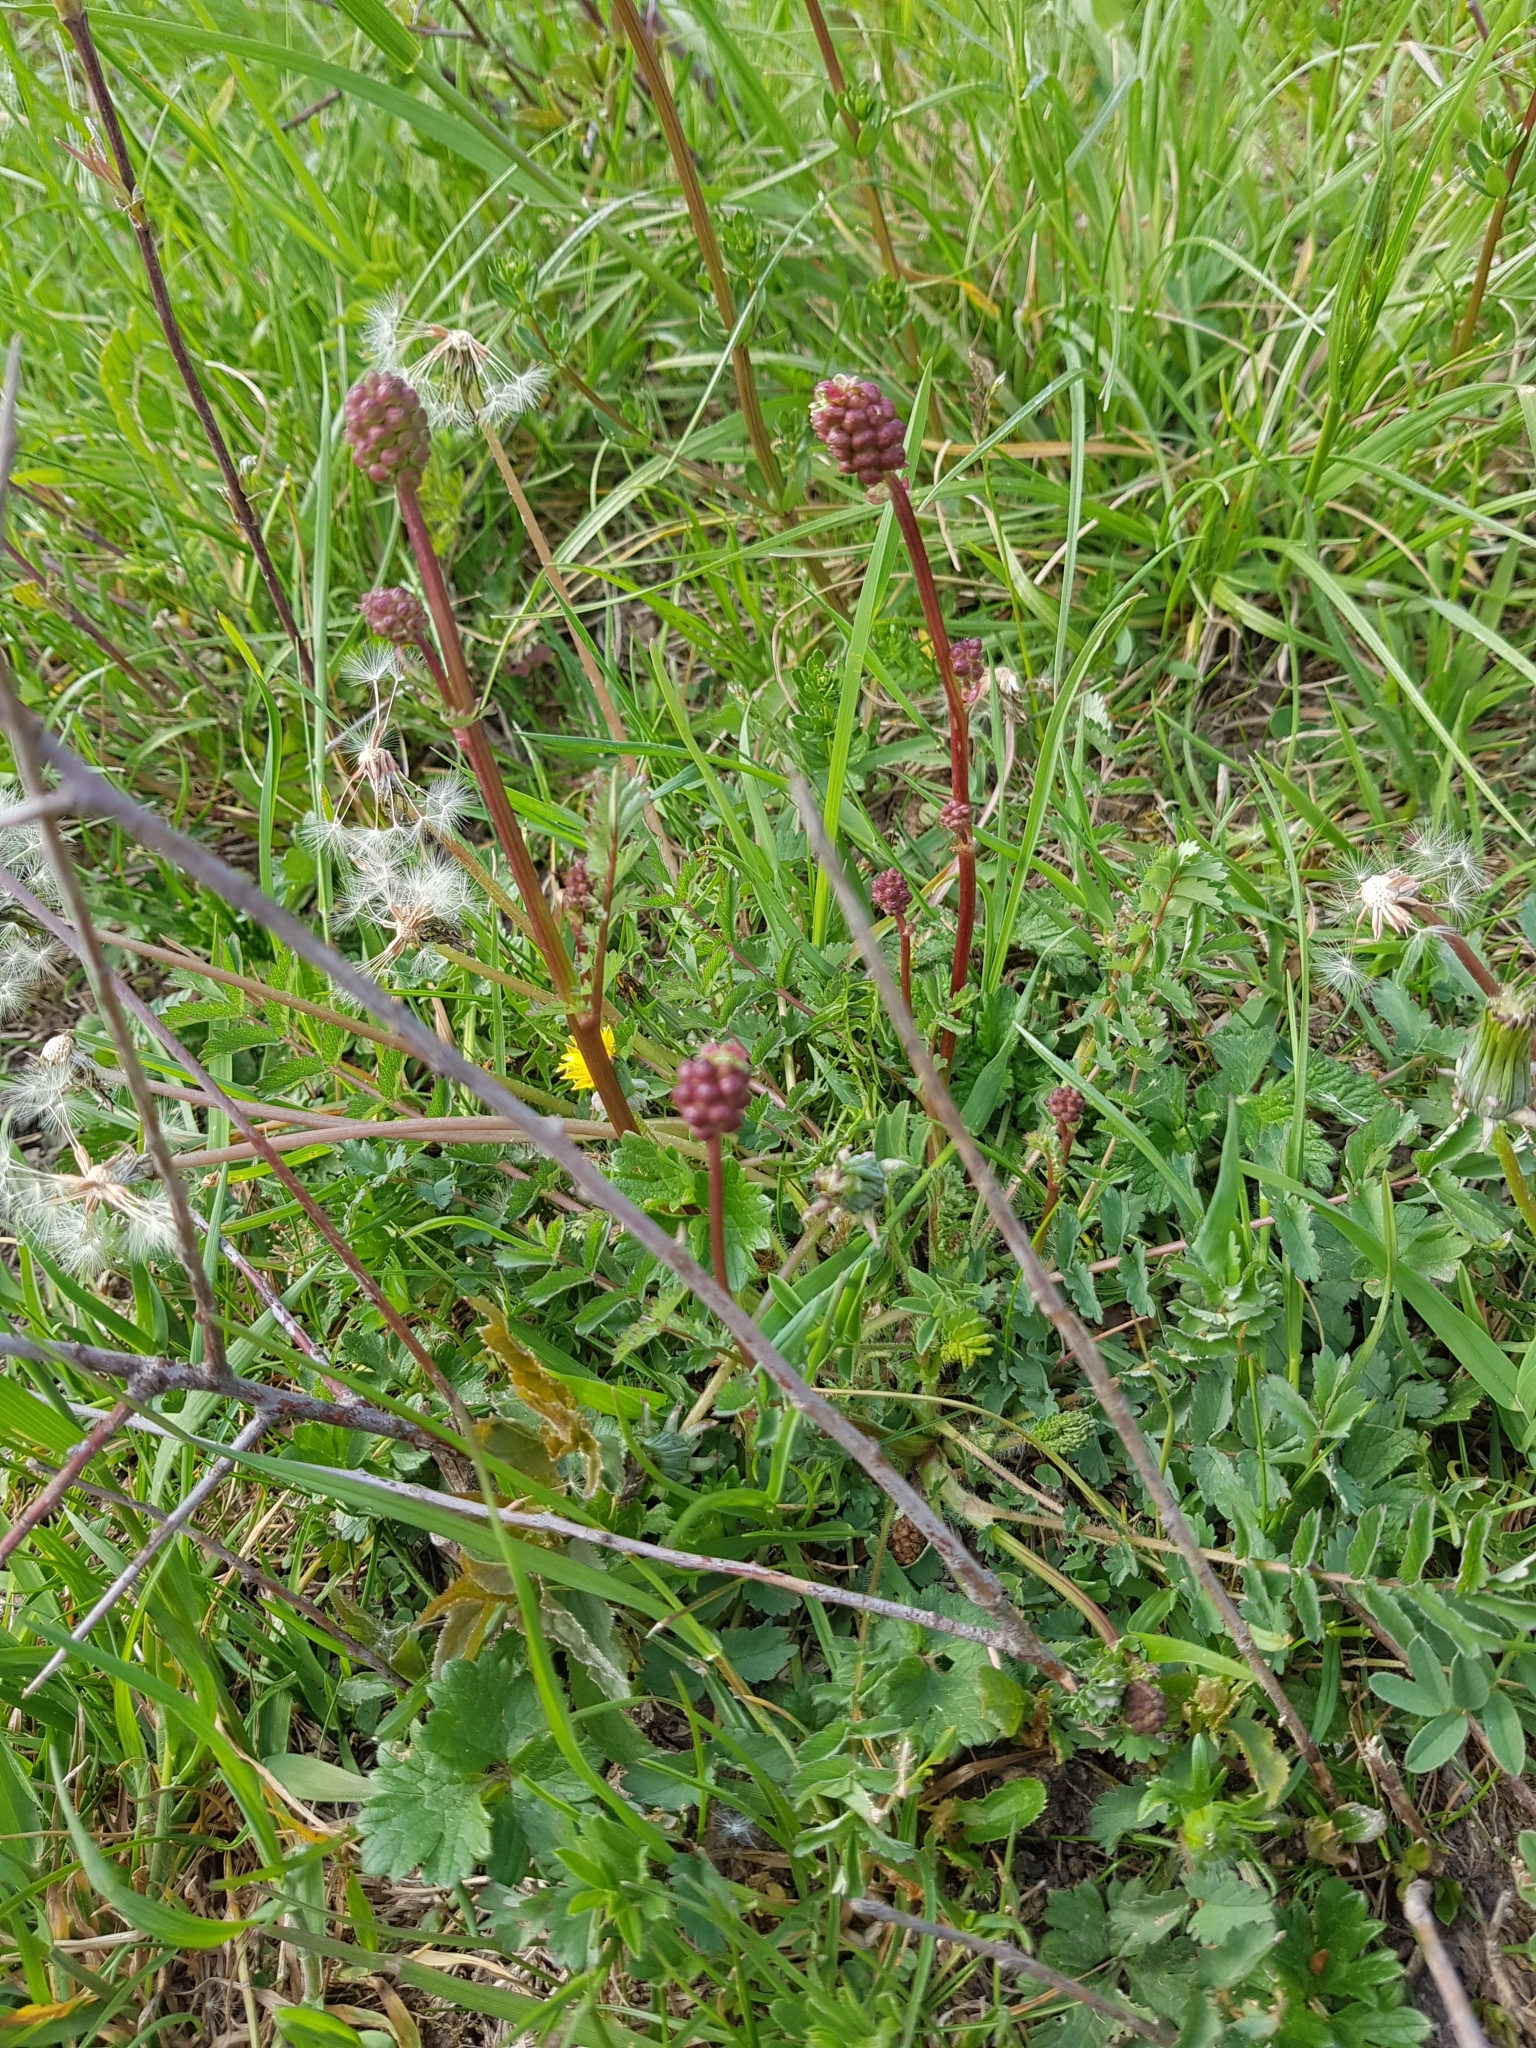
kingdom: Plantae
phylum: Tracheophyta
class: Magnoliopsida
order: Rosales
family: Rosaceae
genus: Poterium
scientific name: Poterium sanguisorba
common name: Salad burnet
